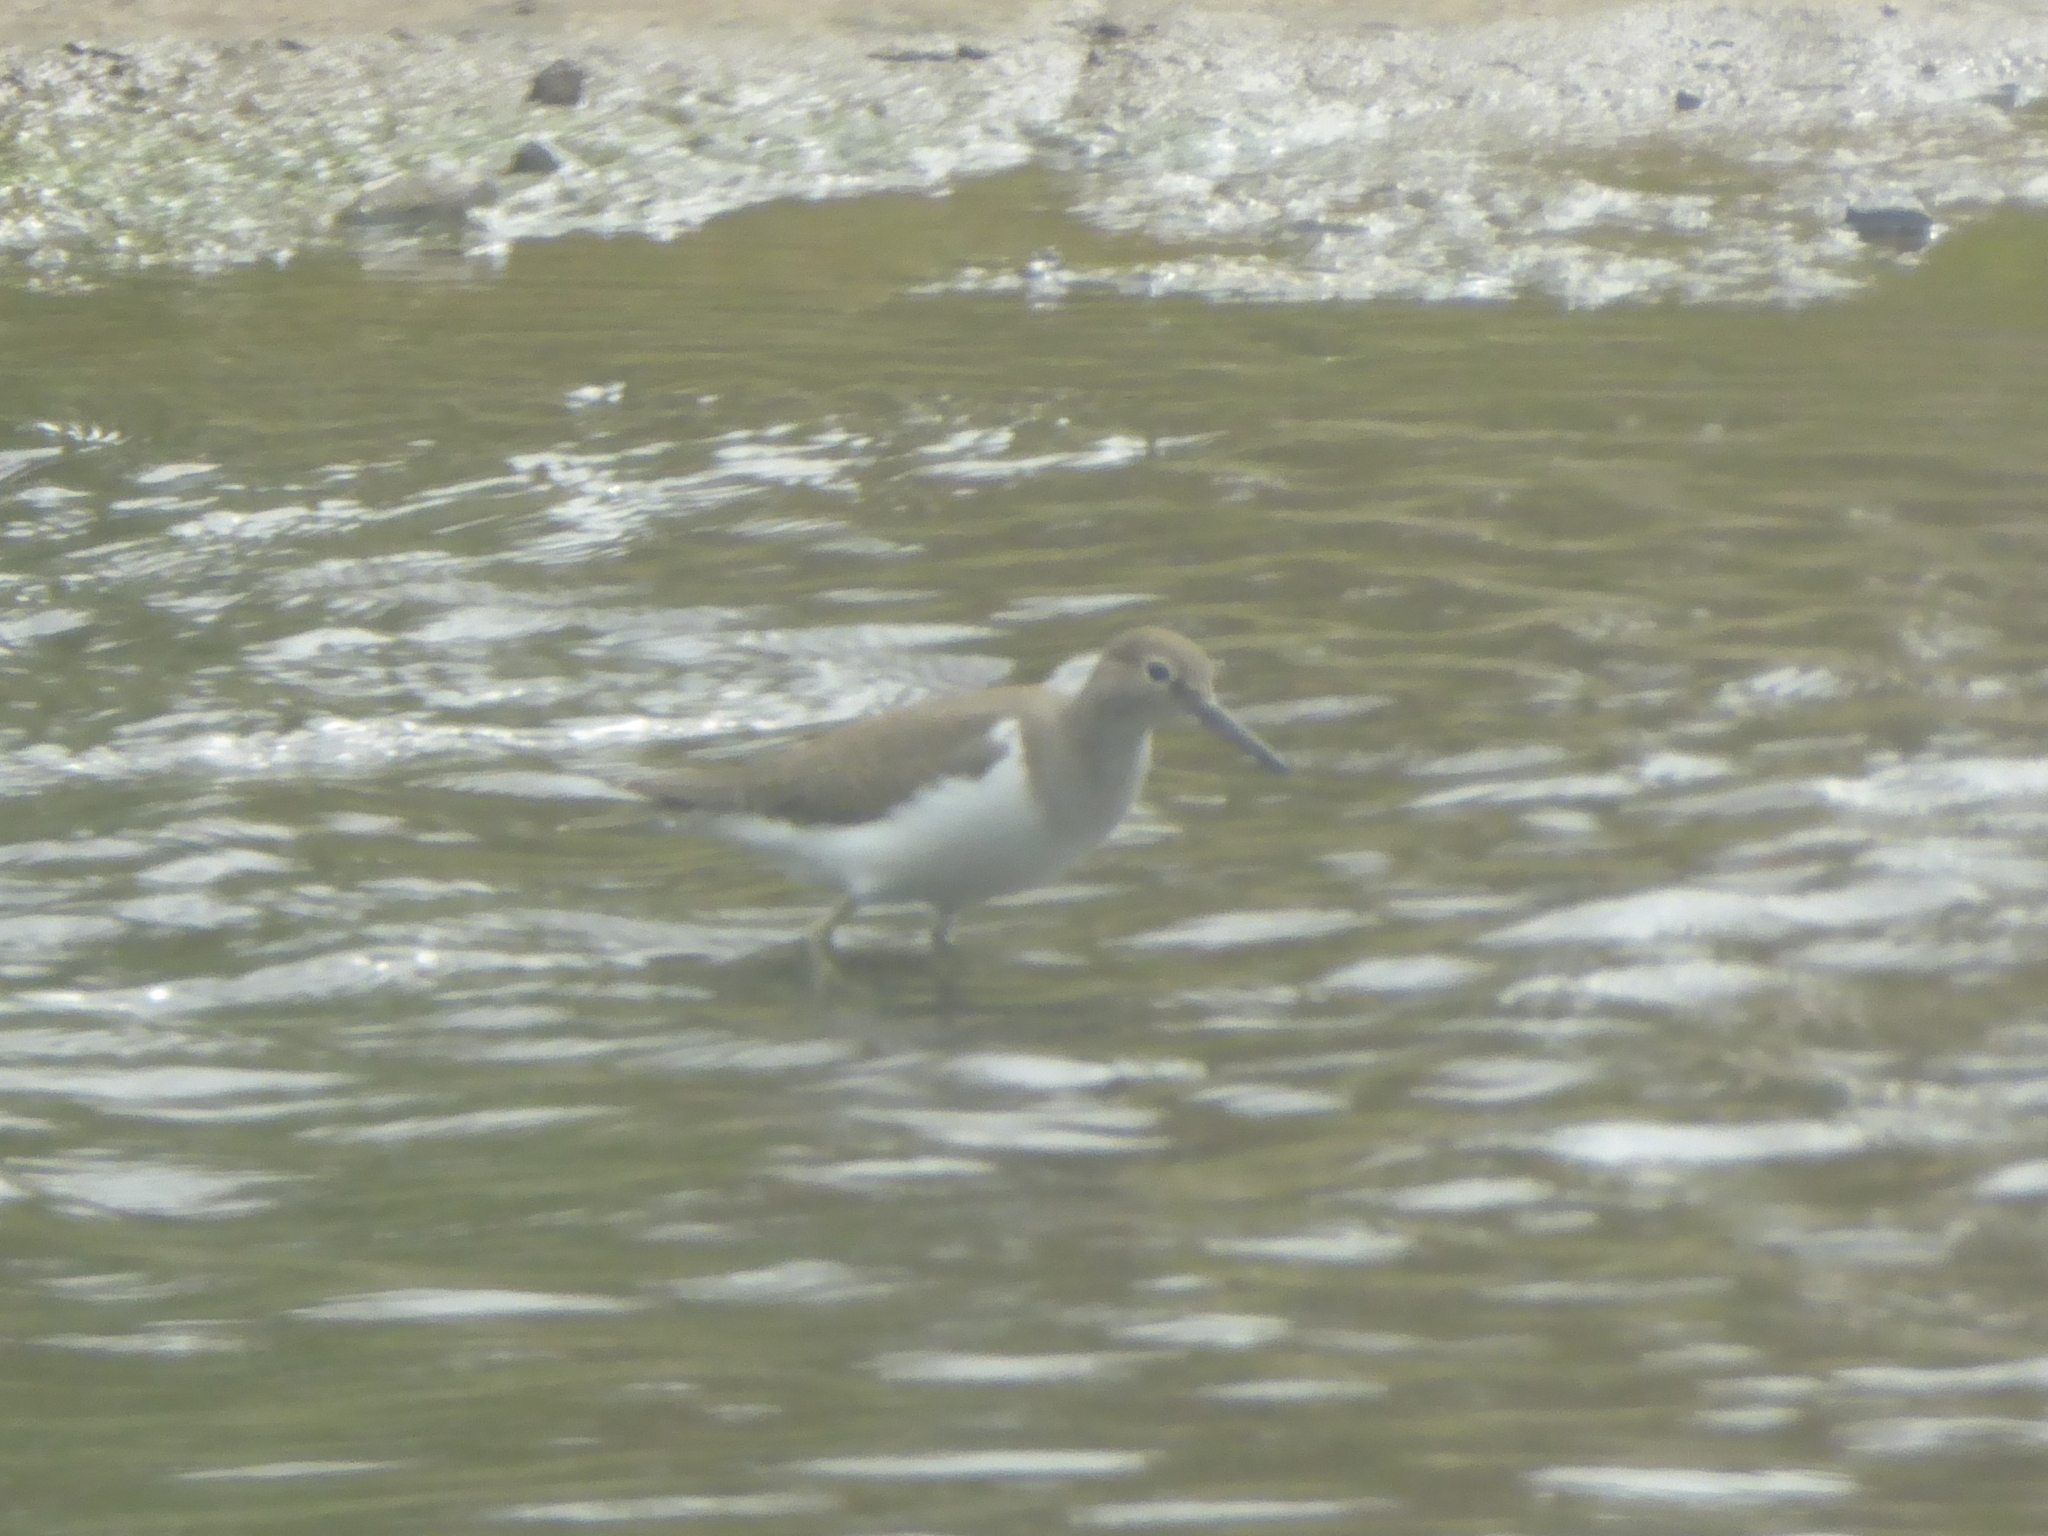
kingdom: Animalia
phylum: Chordata
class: Aves
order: Charadriiformes
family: Scolopacidae
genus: Actitis
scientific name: Actitis hypoleucos
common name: Common sandpiper
